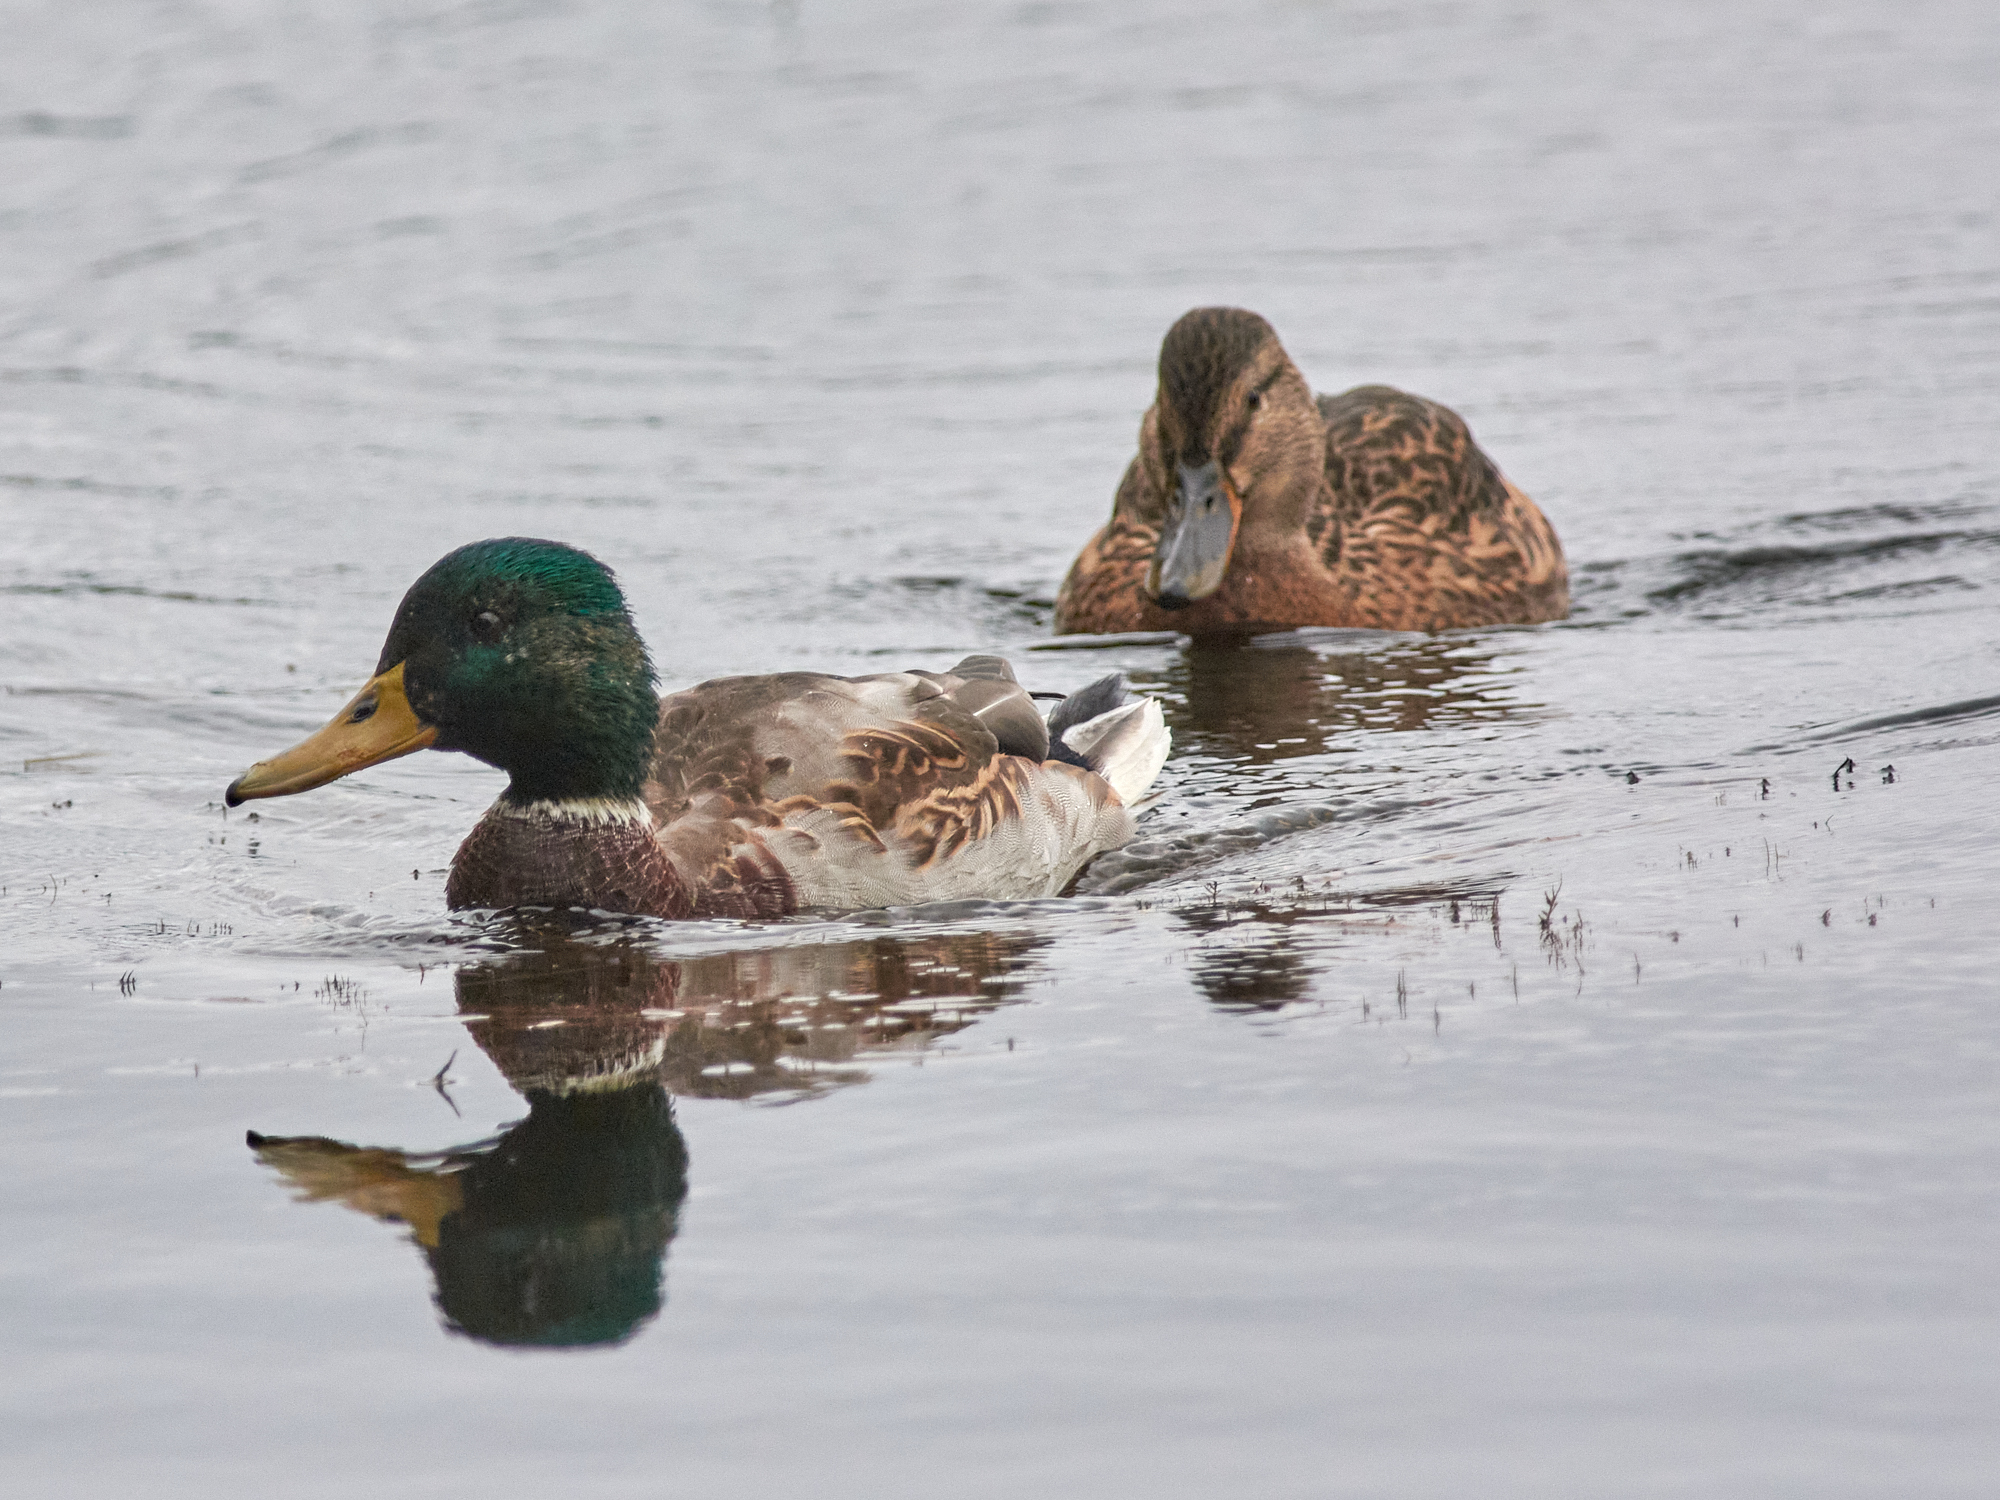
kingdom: Animalia
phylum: Chordata
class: Aves
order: Anseriformes
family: Anatidae
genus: Anas
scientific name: Anas platyrhynchos
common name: Mallard
